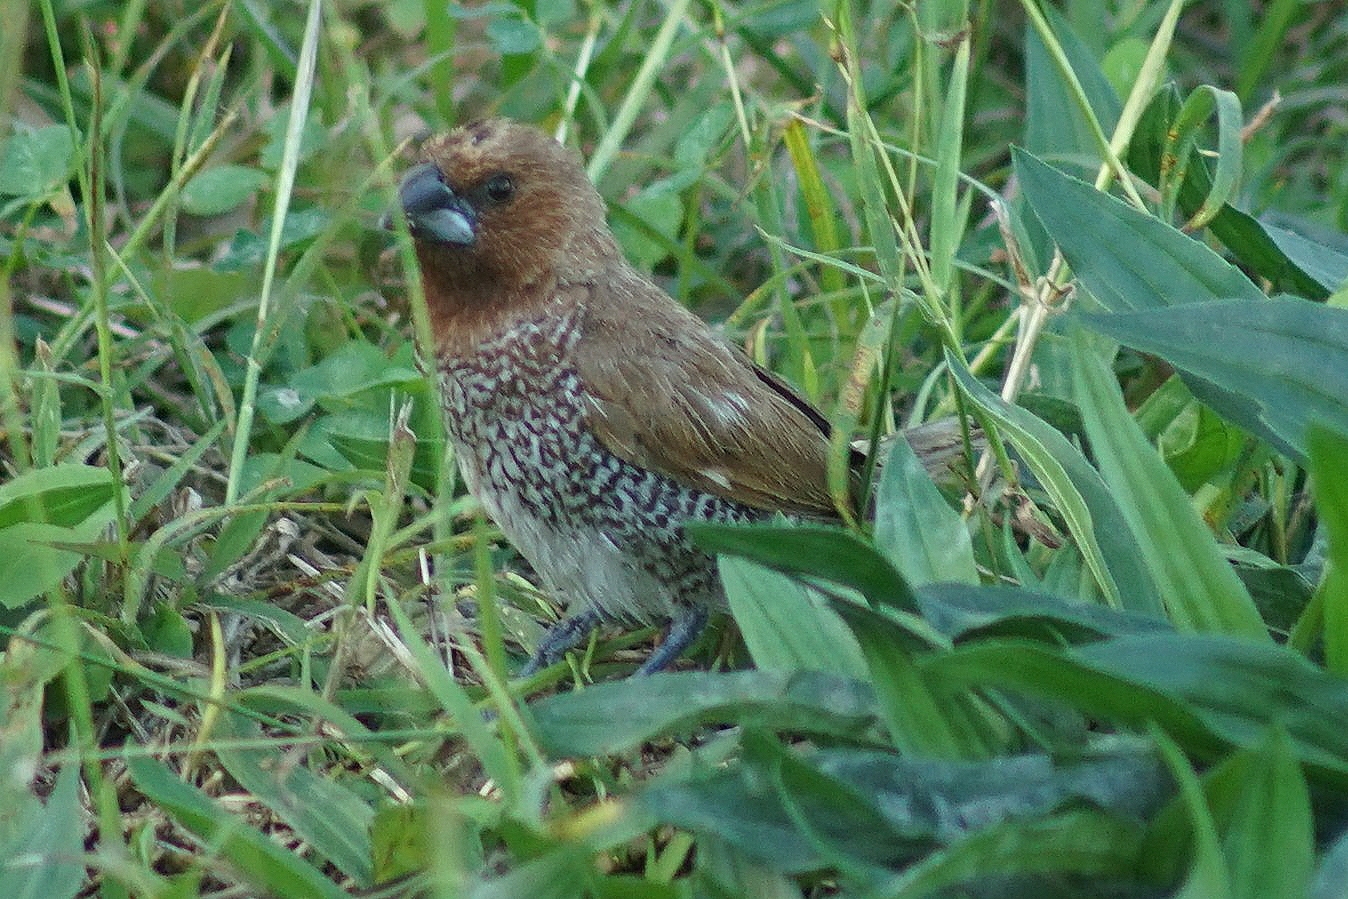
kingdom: Animalia
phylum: Chordata
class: Aves
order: Passeriformes
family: Estrildidae
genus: Lonchura
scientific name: Lonchura punctulata
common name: Scaly-breasted munia
